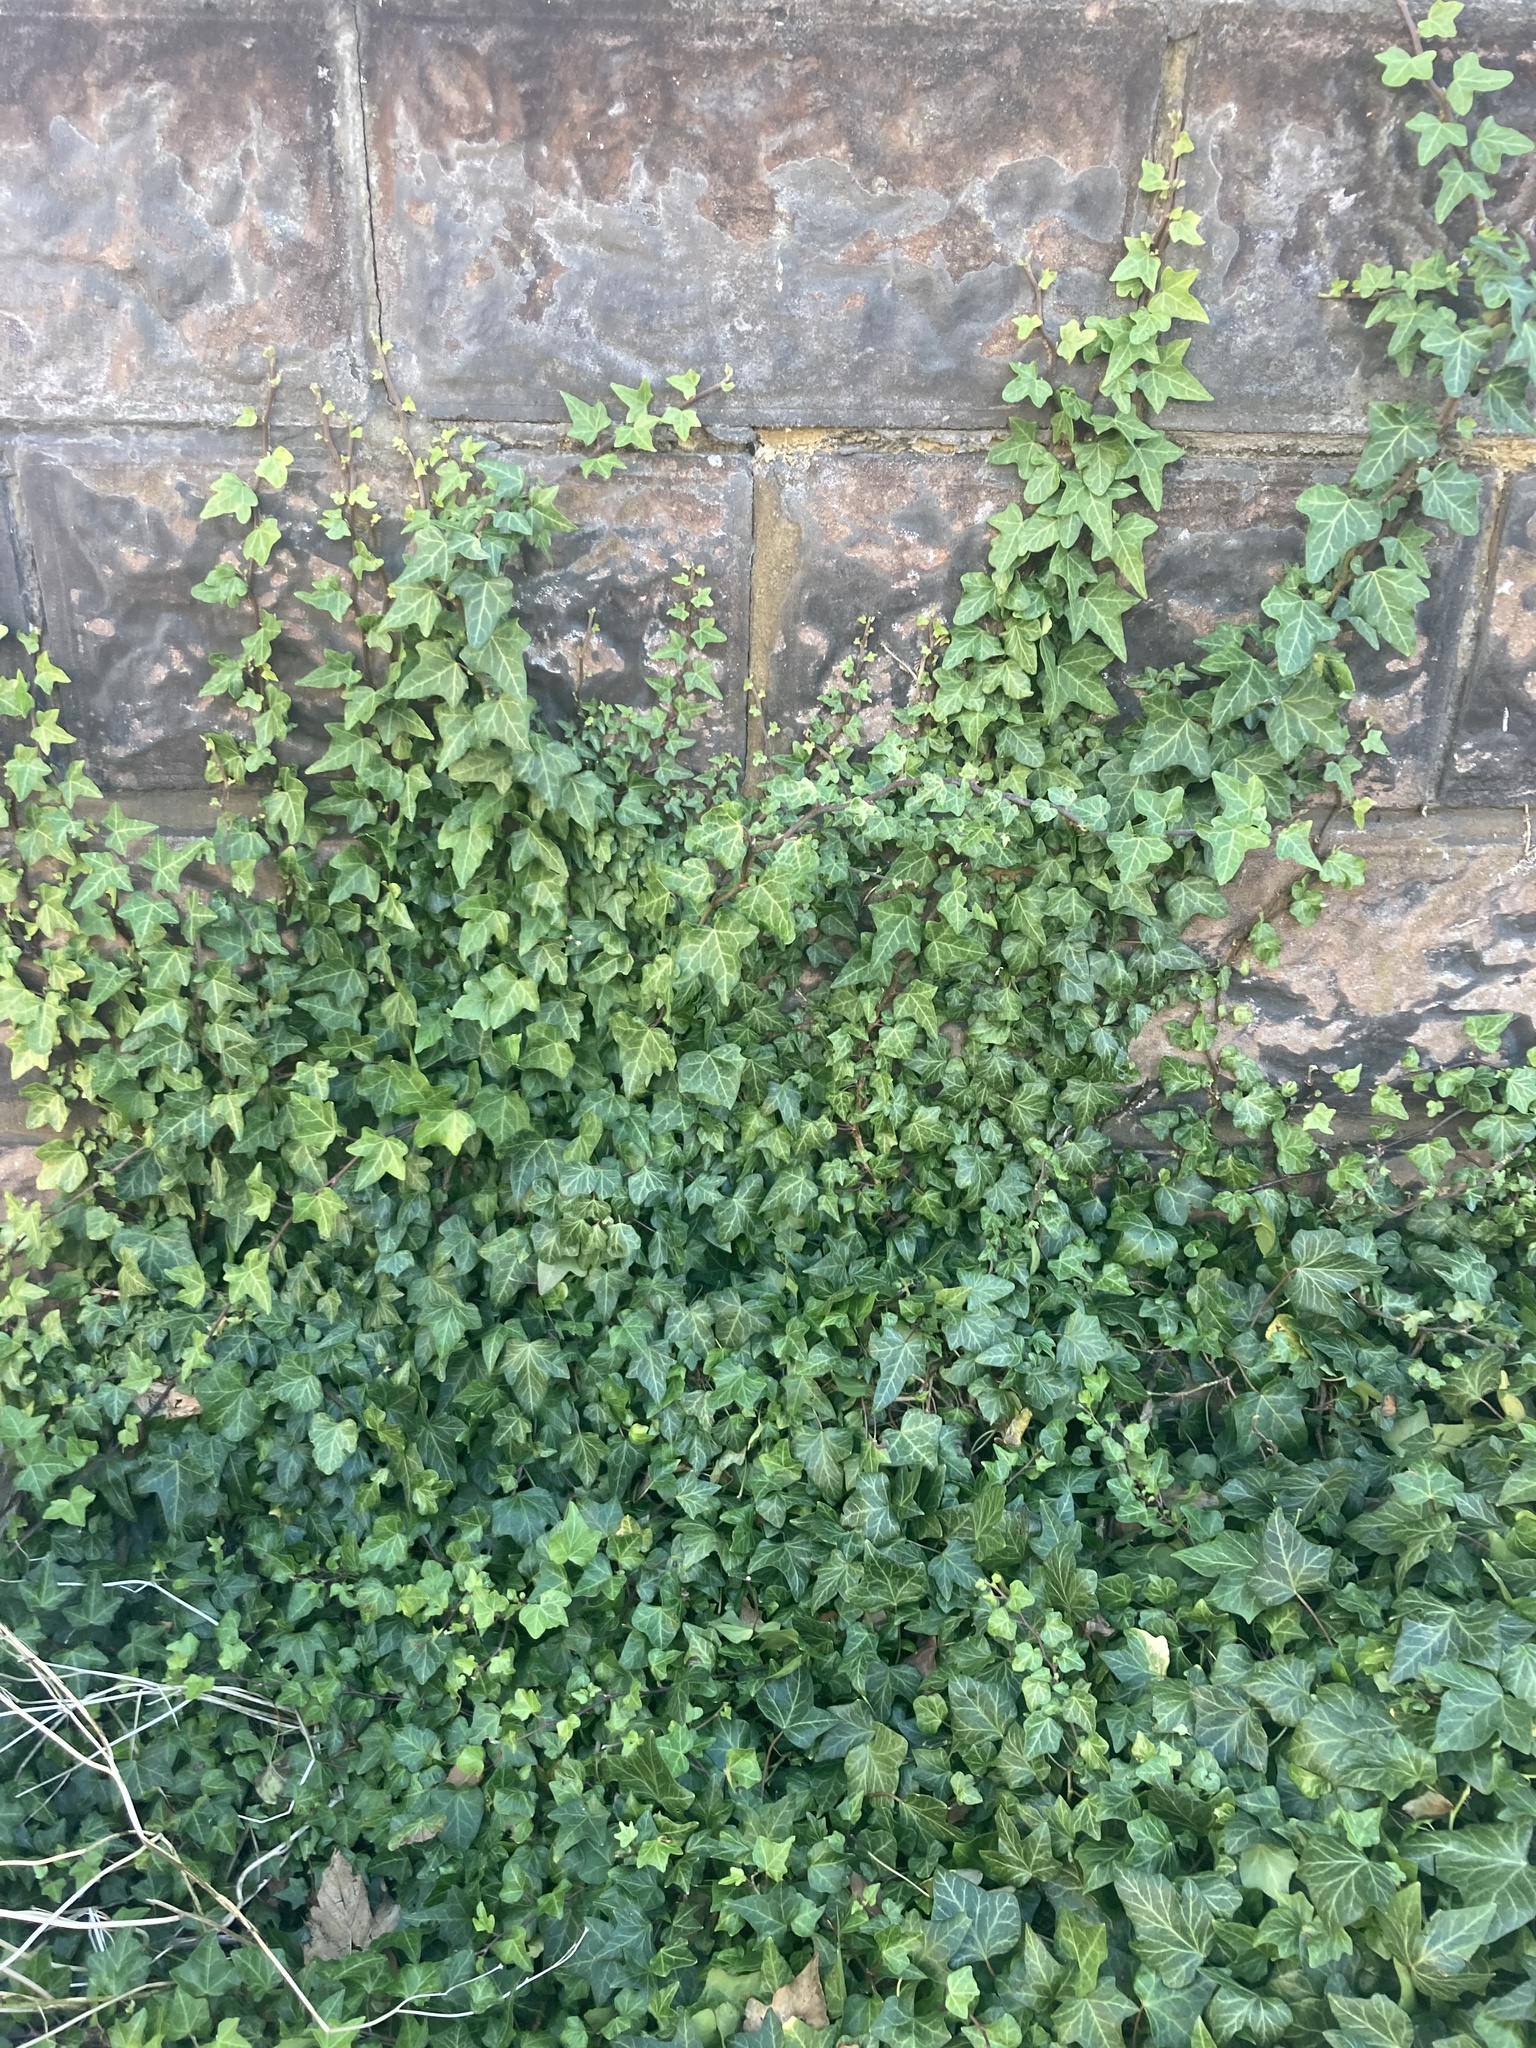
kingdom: Plantae
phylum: Tracheophyta
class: Magnoliopsida
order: Apiales
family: Araliaceae
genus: Hedera
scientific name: Hedera helix
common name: Ivy
